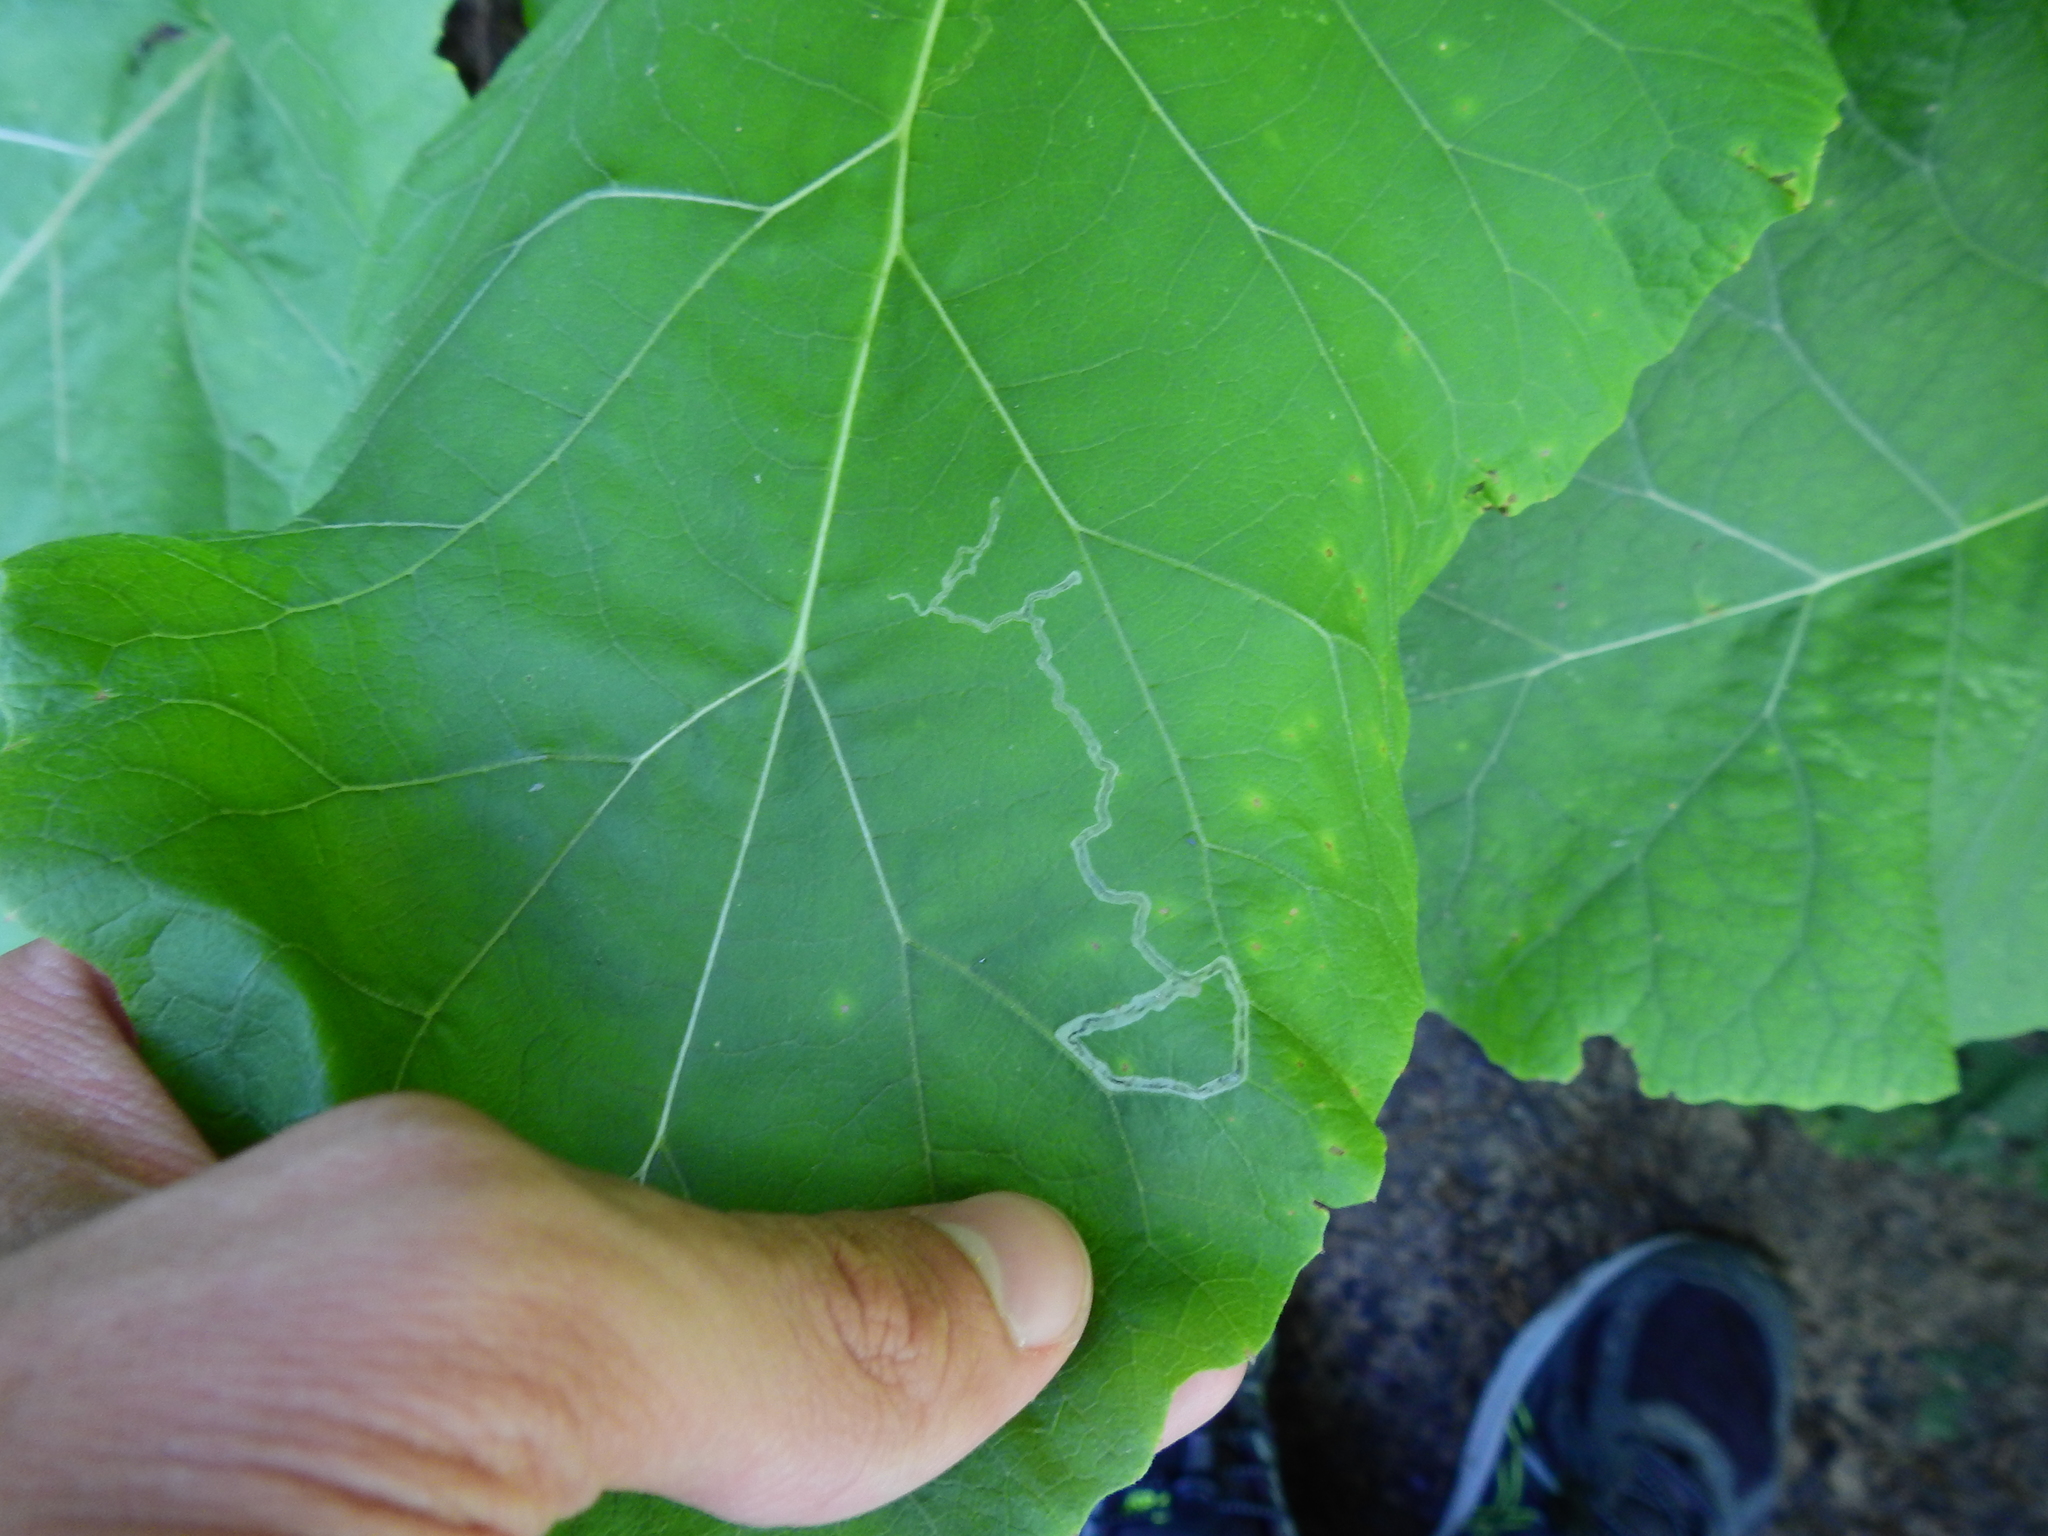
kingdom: Animalia
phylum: Arthropoda
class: Insecta
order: Diptera
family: Agromyzidae
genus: Liriomyza
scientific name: Liriomyza arctii
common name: Burdock leafminer
